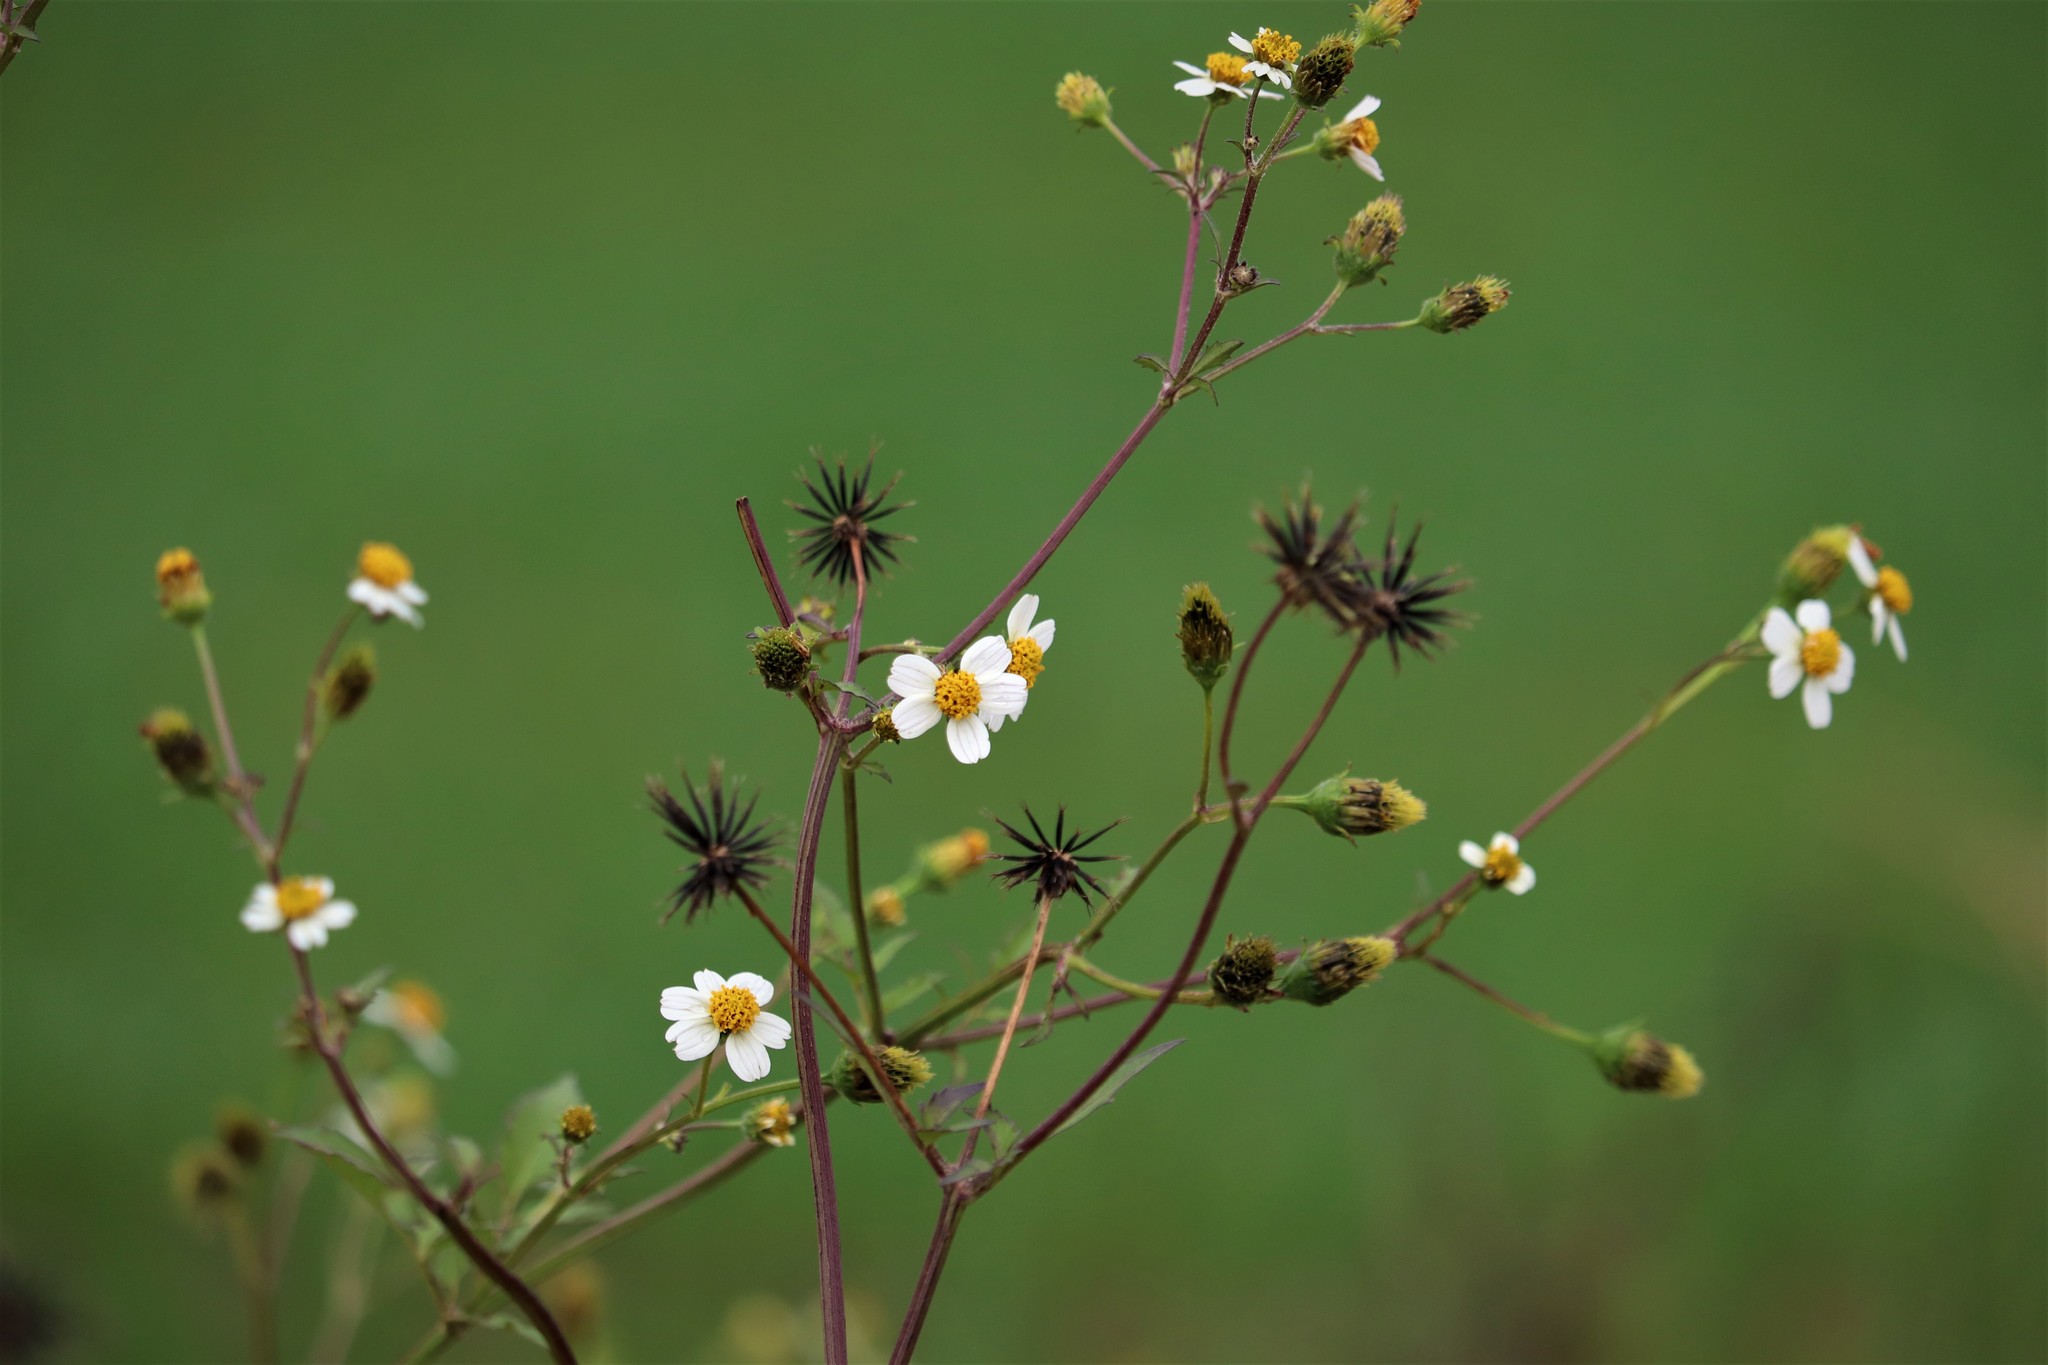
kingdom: Plantae
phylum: Tracheophyta
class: Magnoliopsida
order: Asterales
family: Asteraceae
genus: Bidens
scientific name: Bidens pilosa
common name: Black-jack
